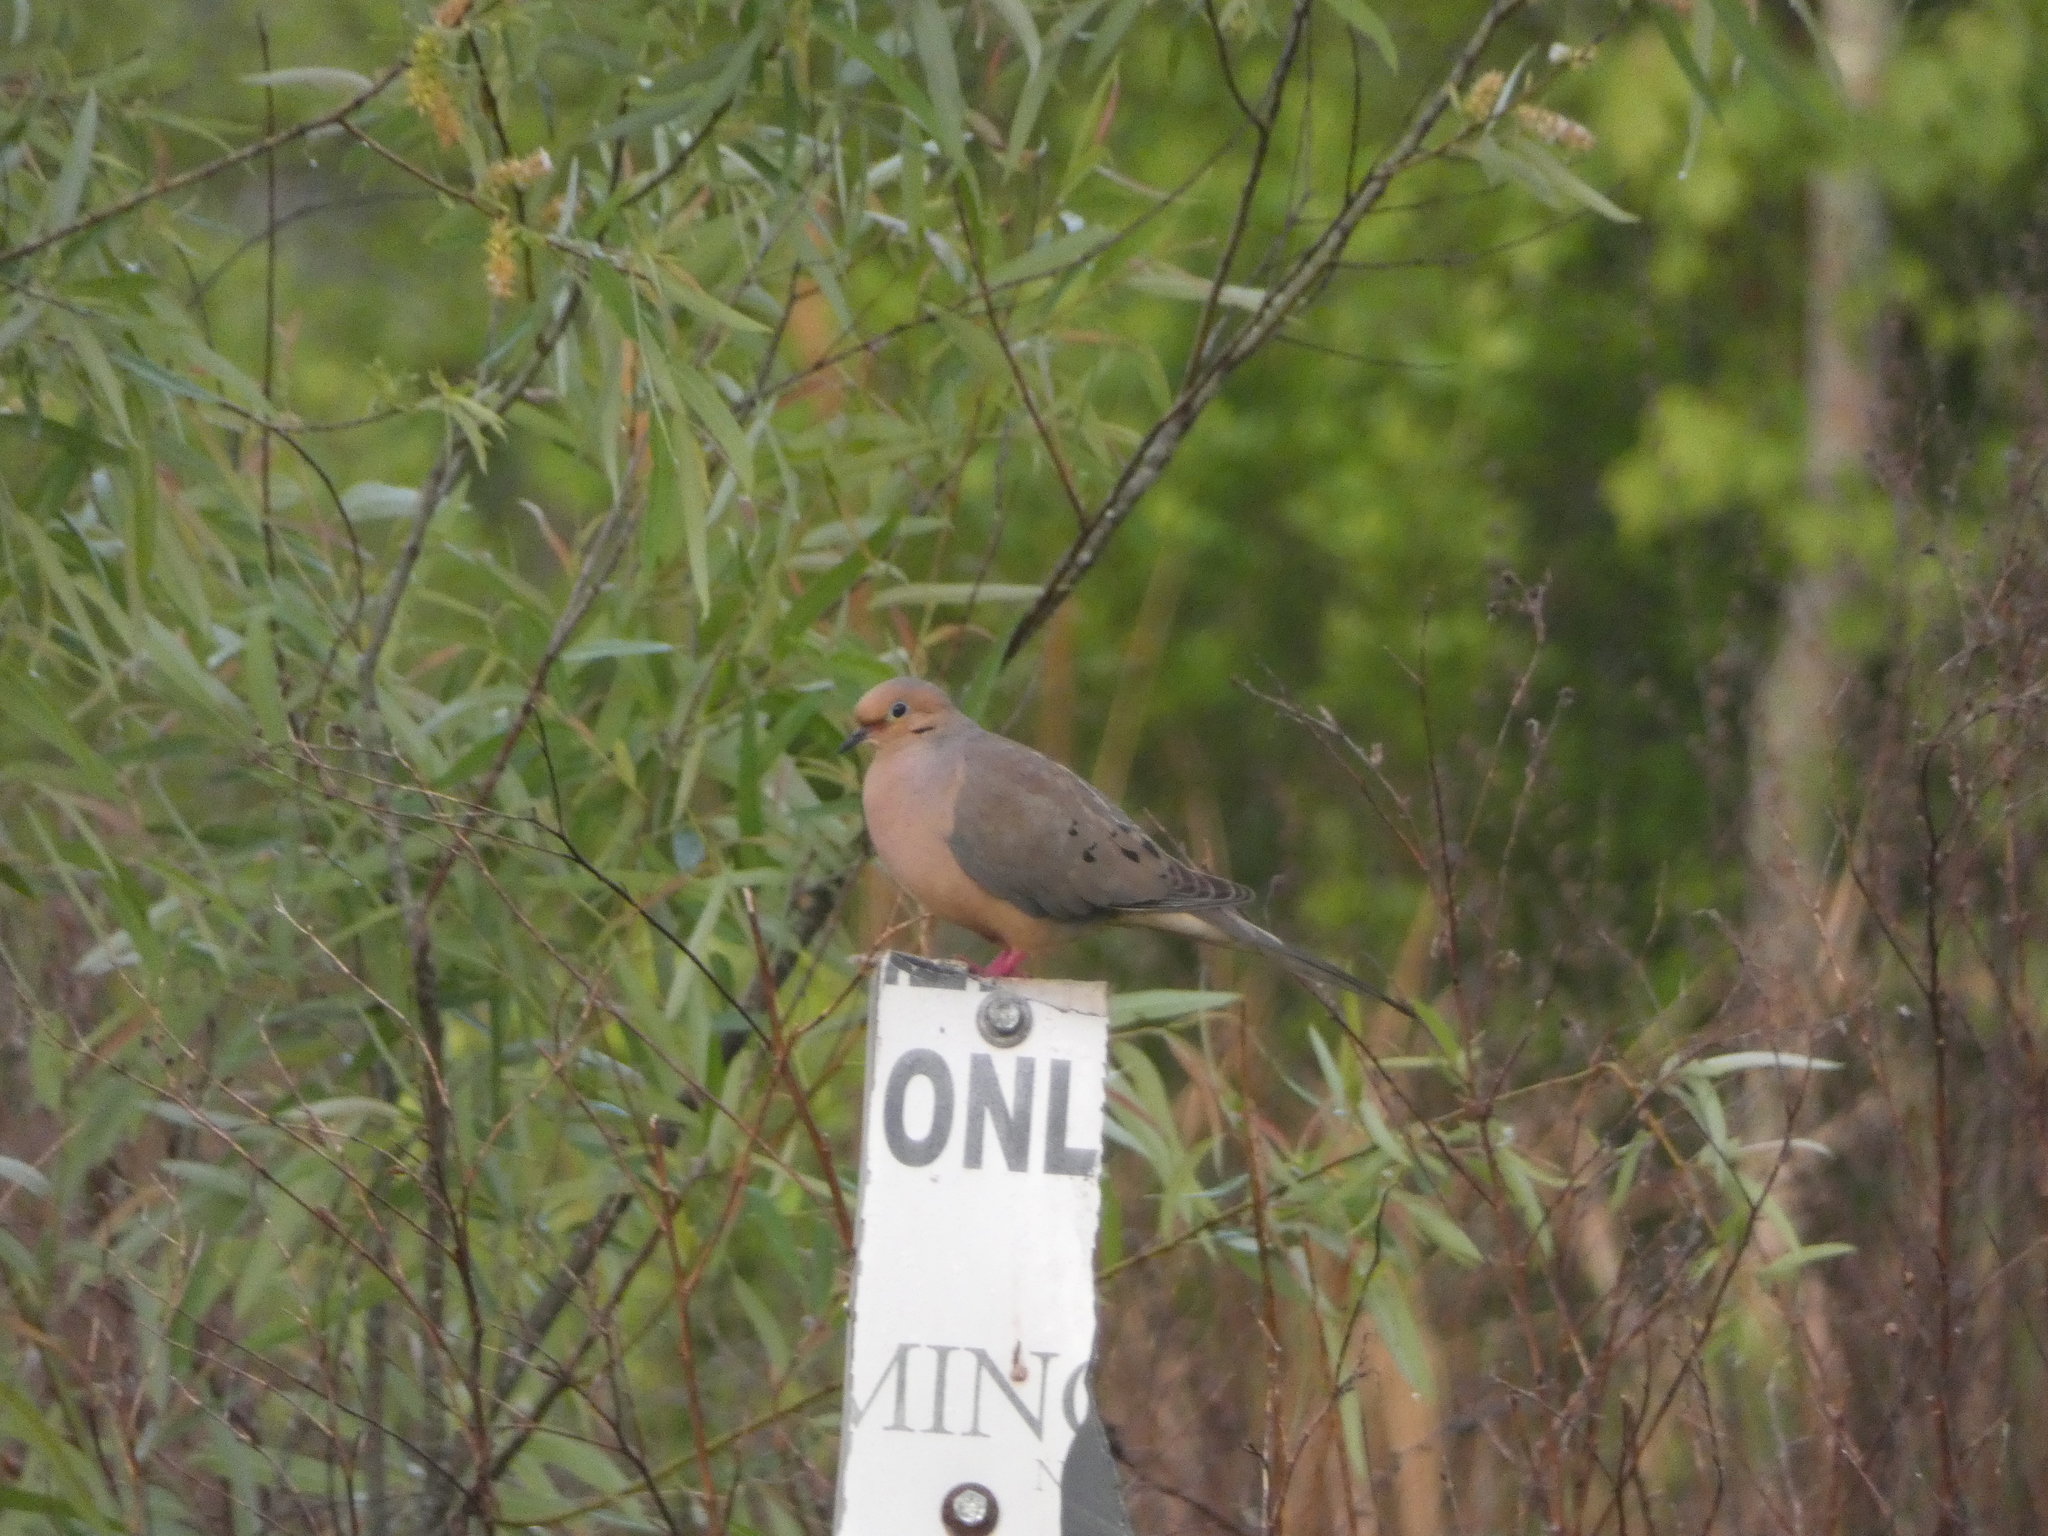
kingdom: Animalia
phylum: Chordata
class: Aves
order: Columbiformes
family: Columbidae
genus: Zenaida
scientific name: Zenaida macroura
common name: Mourning dove
